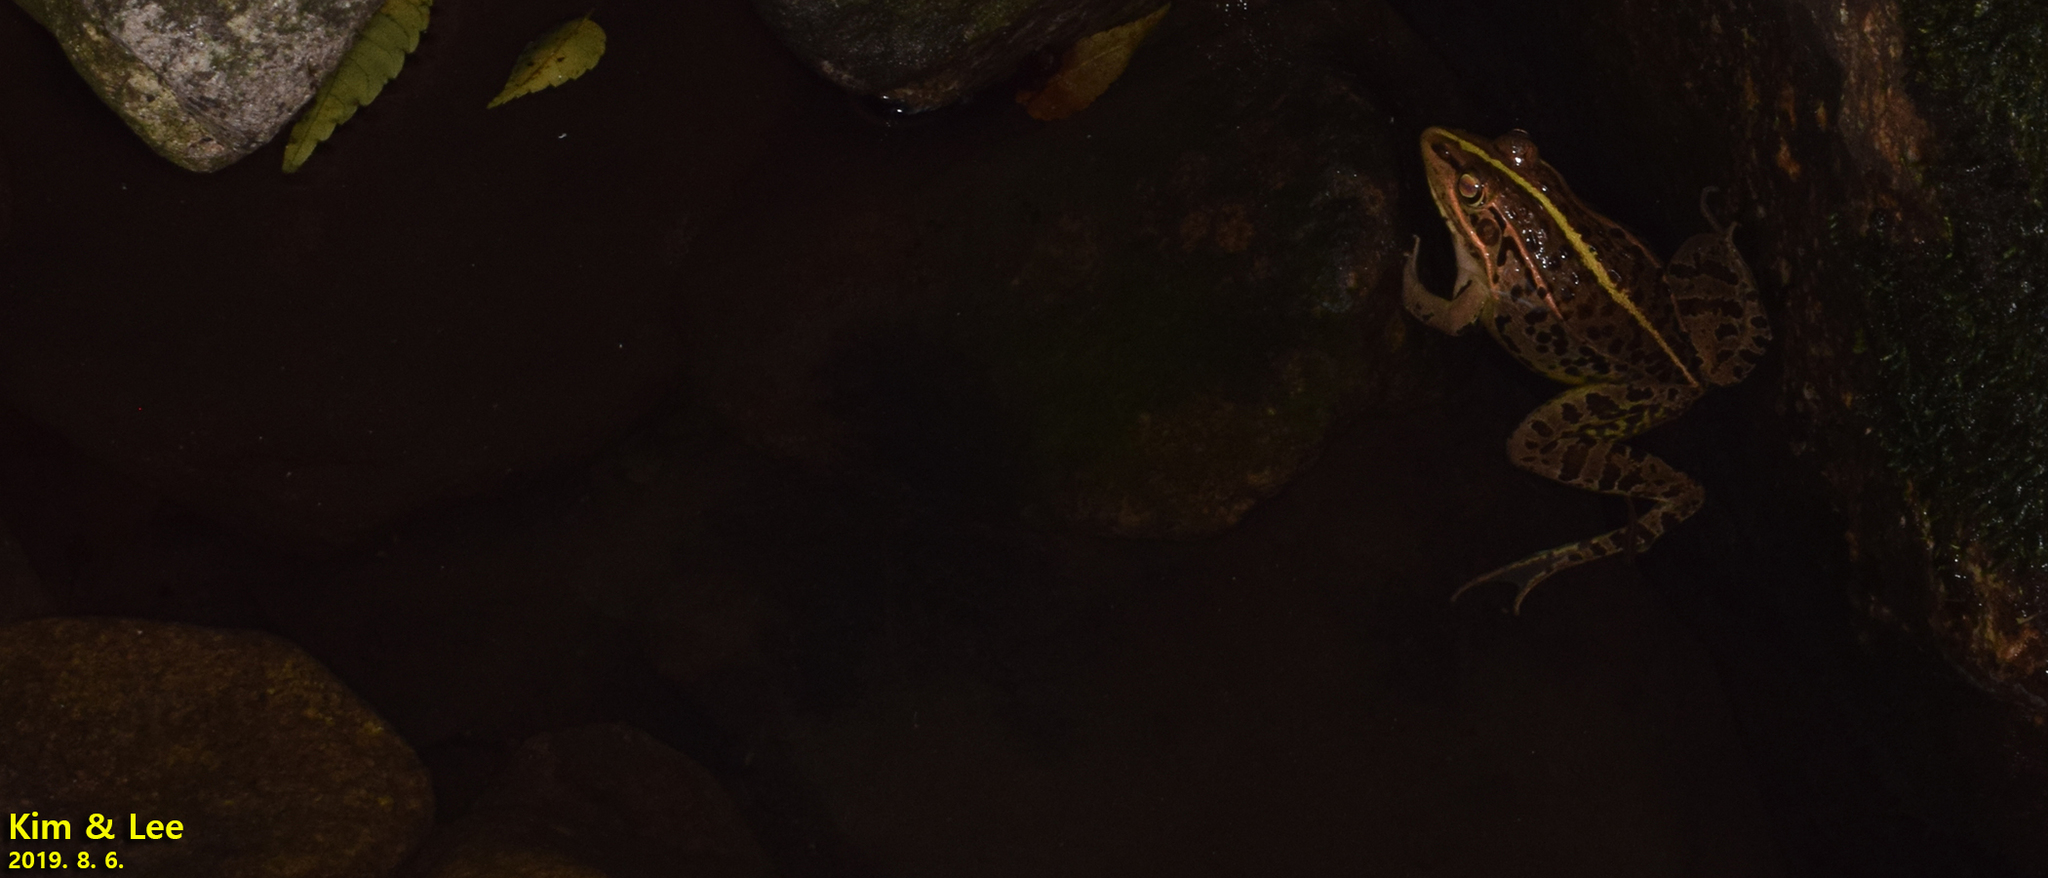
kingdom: Animalia
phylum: Chordata
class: Amphibia
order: Anura
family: Ranidae
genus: Pelophylax
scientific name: Pelophylax nigromaculatus
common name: Black-spotted pond frog
